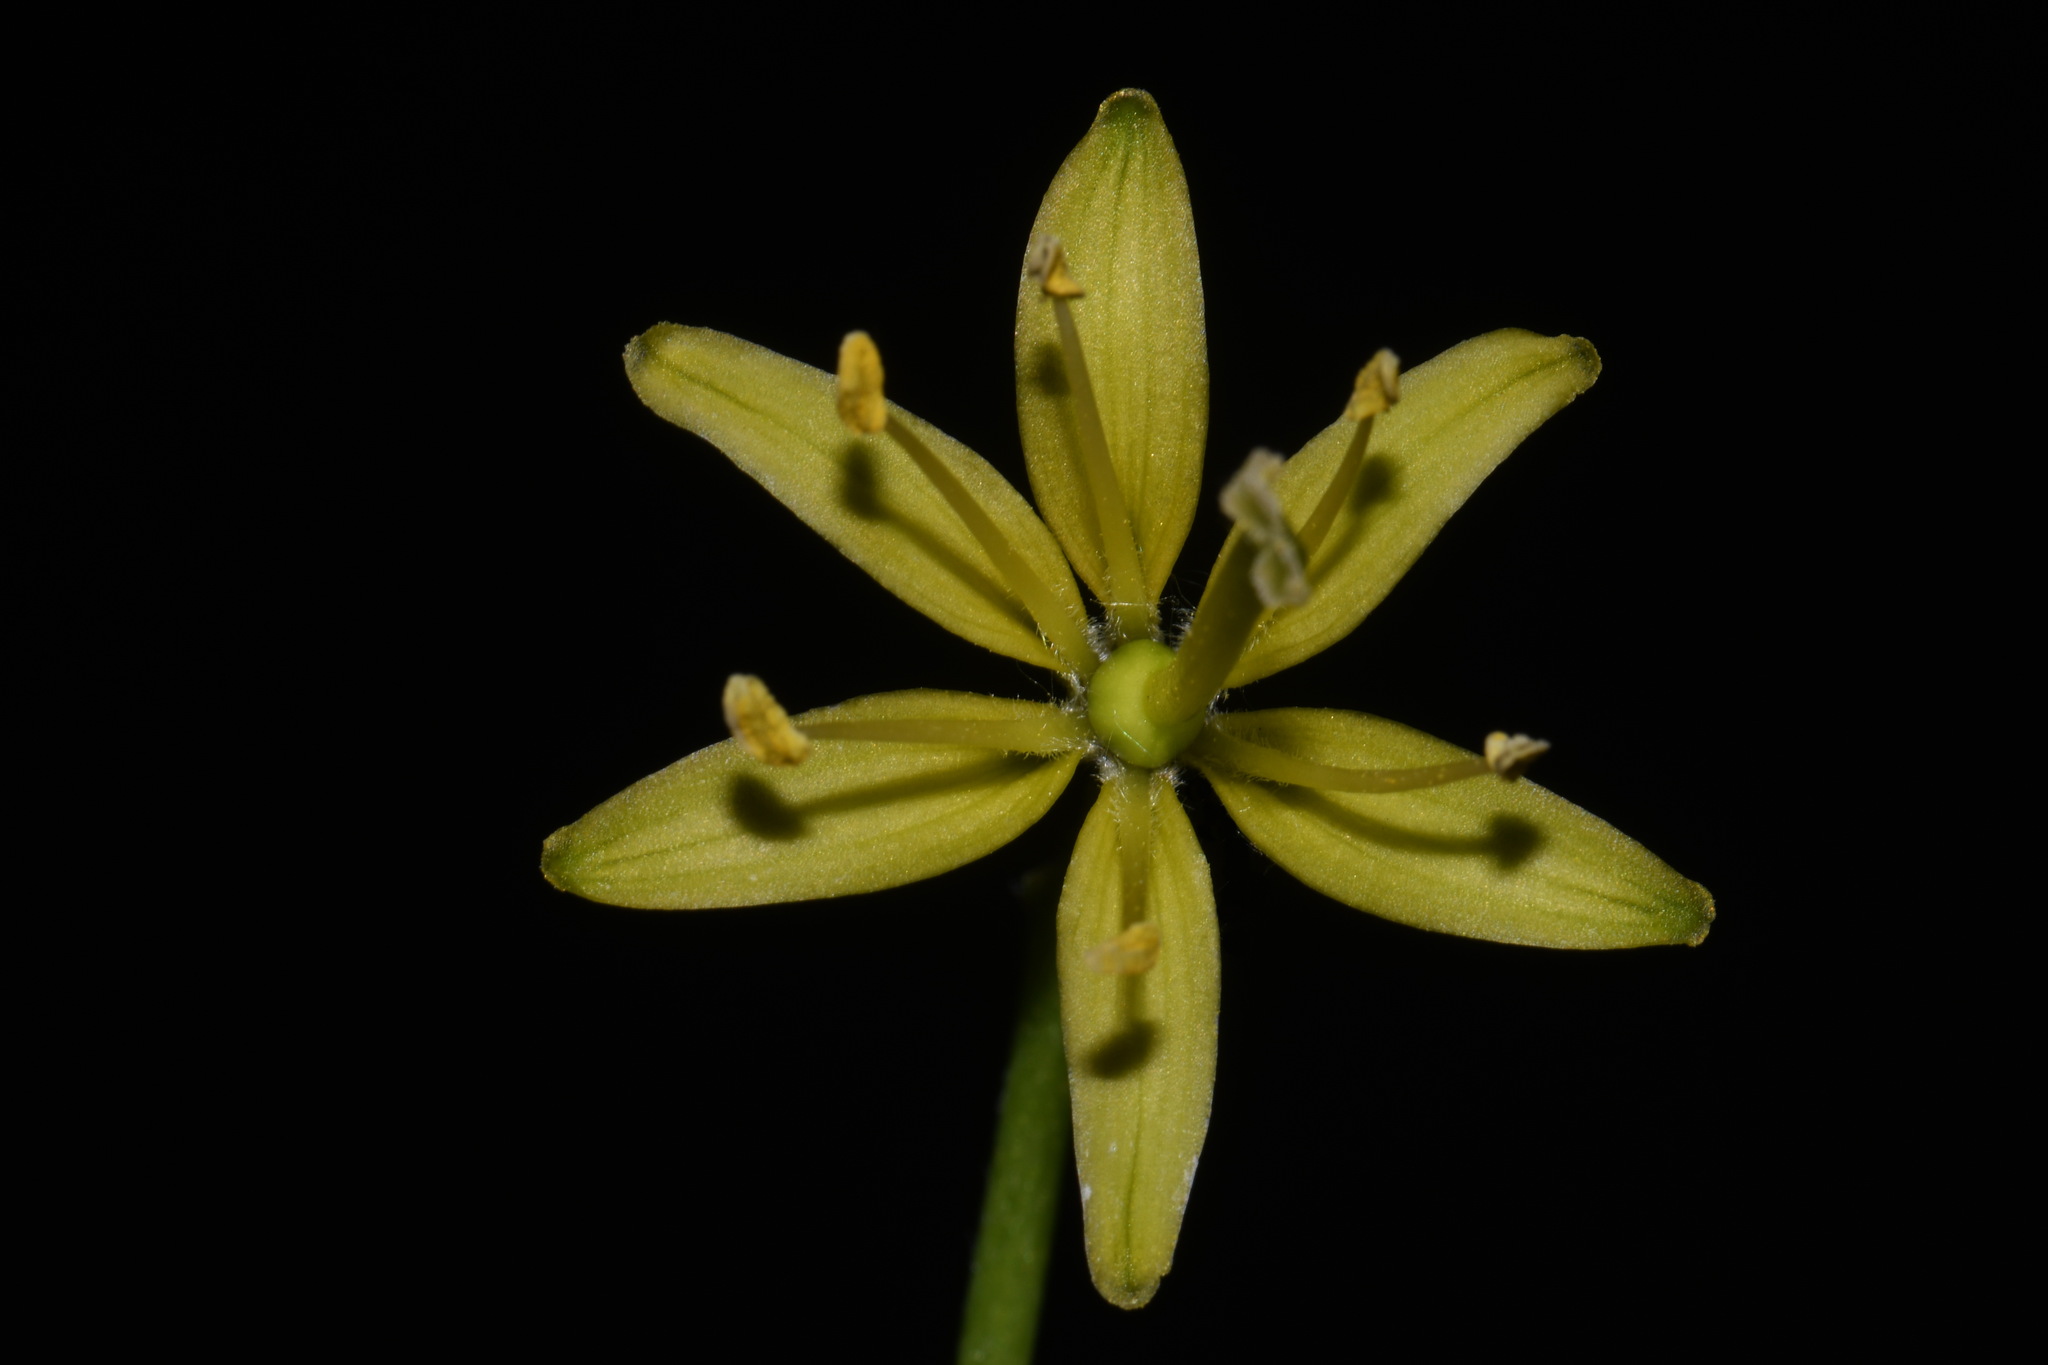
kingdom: Plantae
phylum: Tracheophyta
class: Liliopsida
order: Liliales
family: Liliaceae
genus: Clintonia
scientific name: Clintonia borealis
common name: Yellow clintonia
